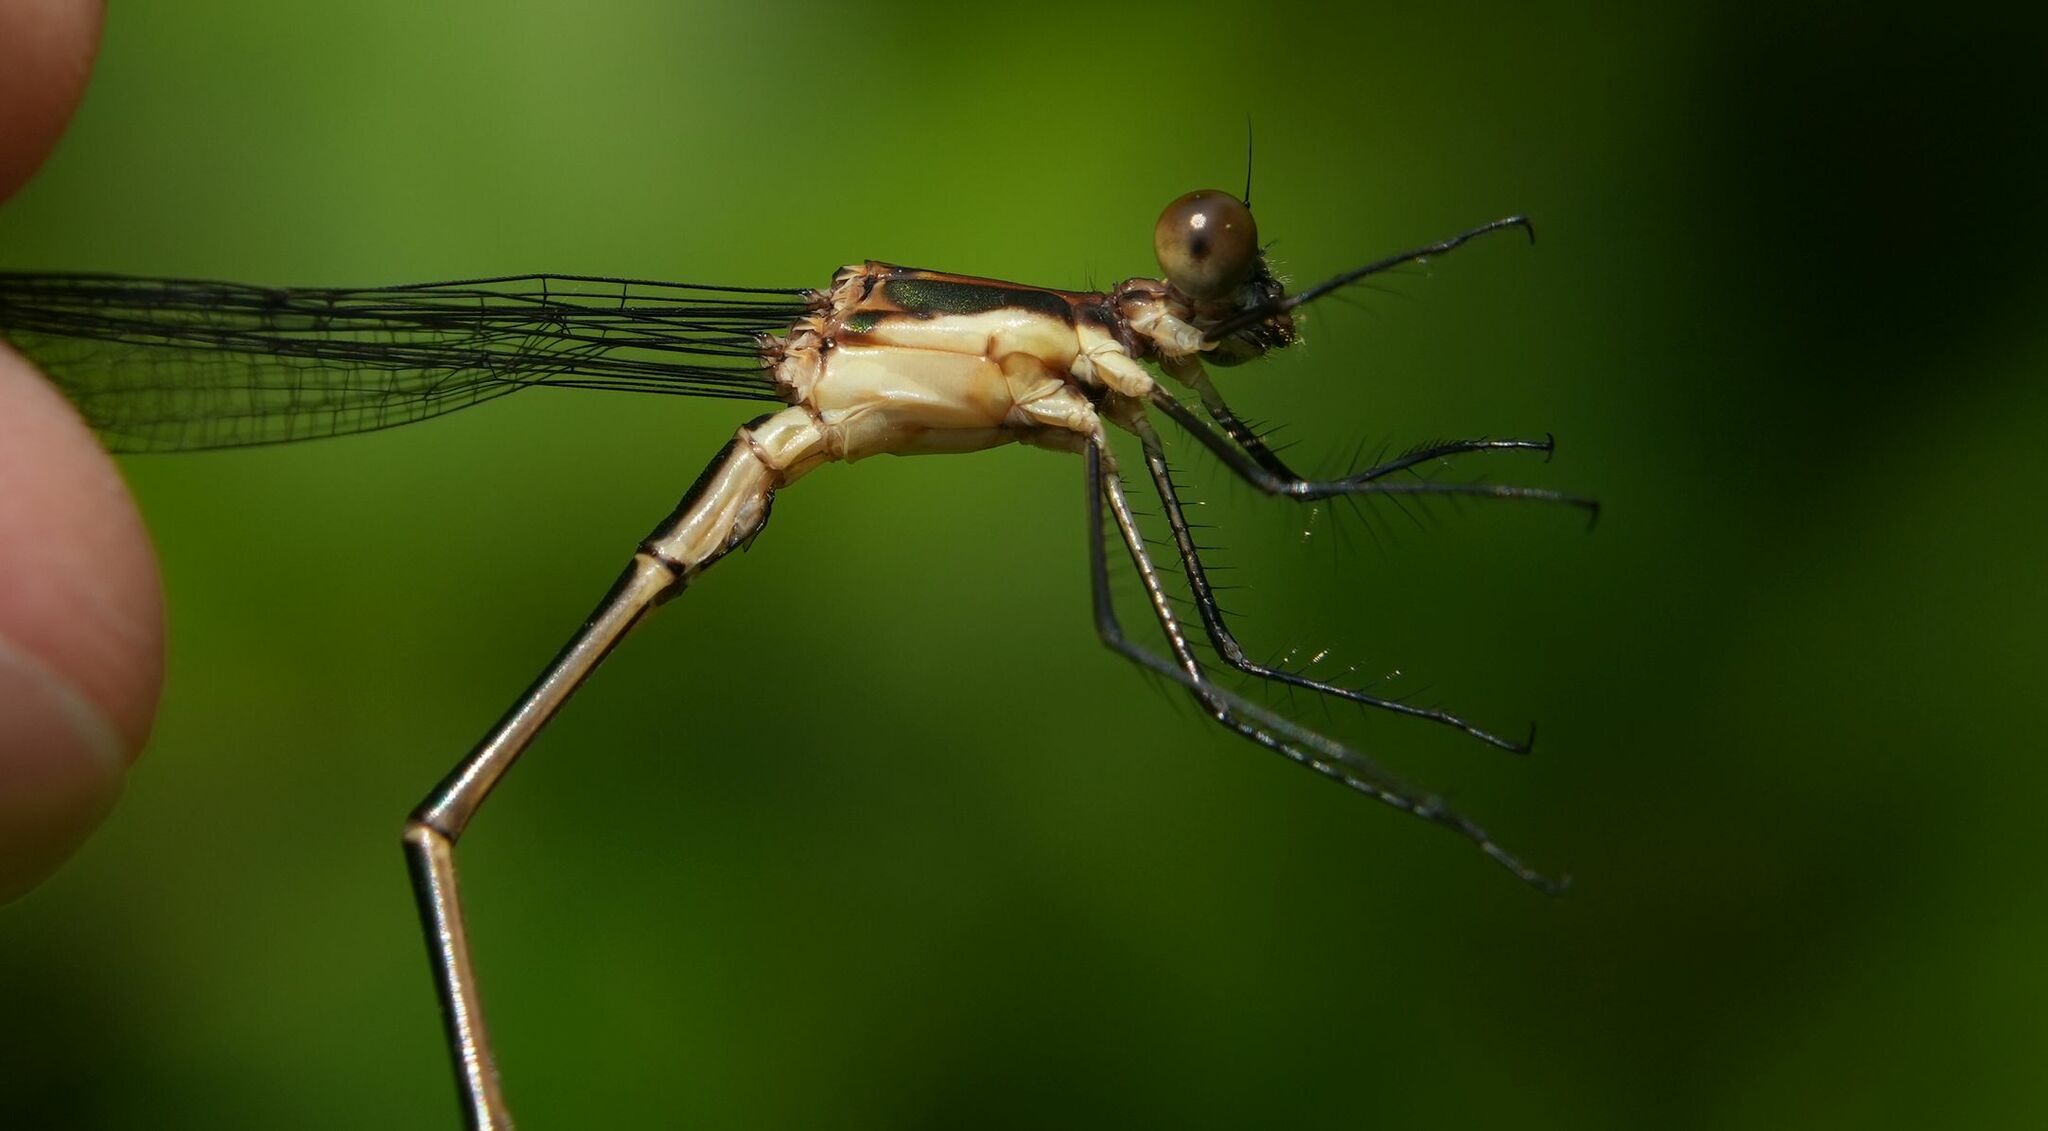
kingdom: Animalia
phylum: Arthropoda
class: Insecta
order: Odonata
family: Lestidae
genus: Lestes
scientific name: Lestes vigilax
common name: Swamp spreadwing
